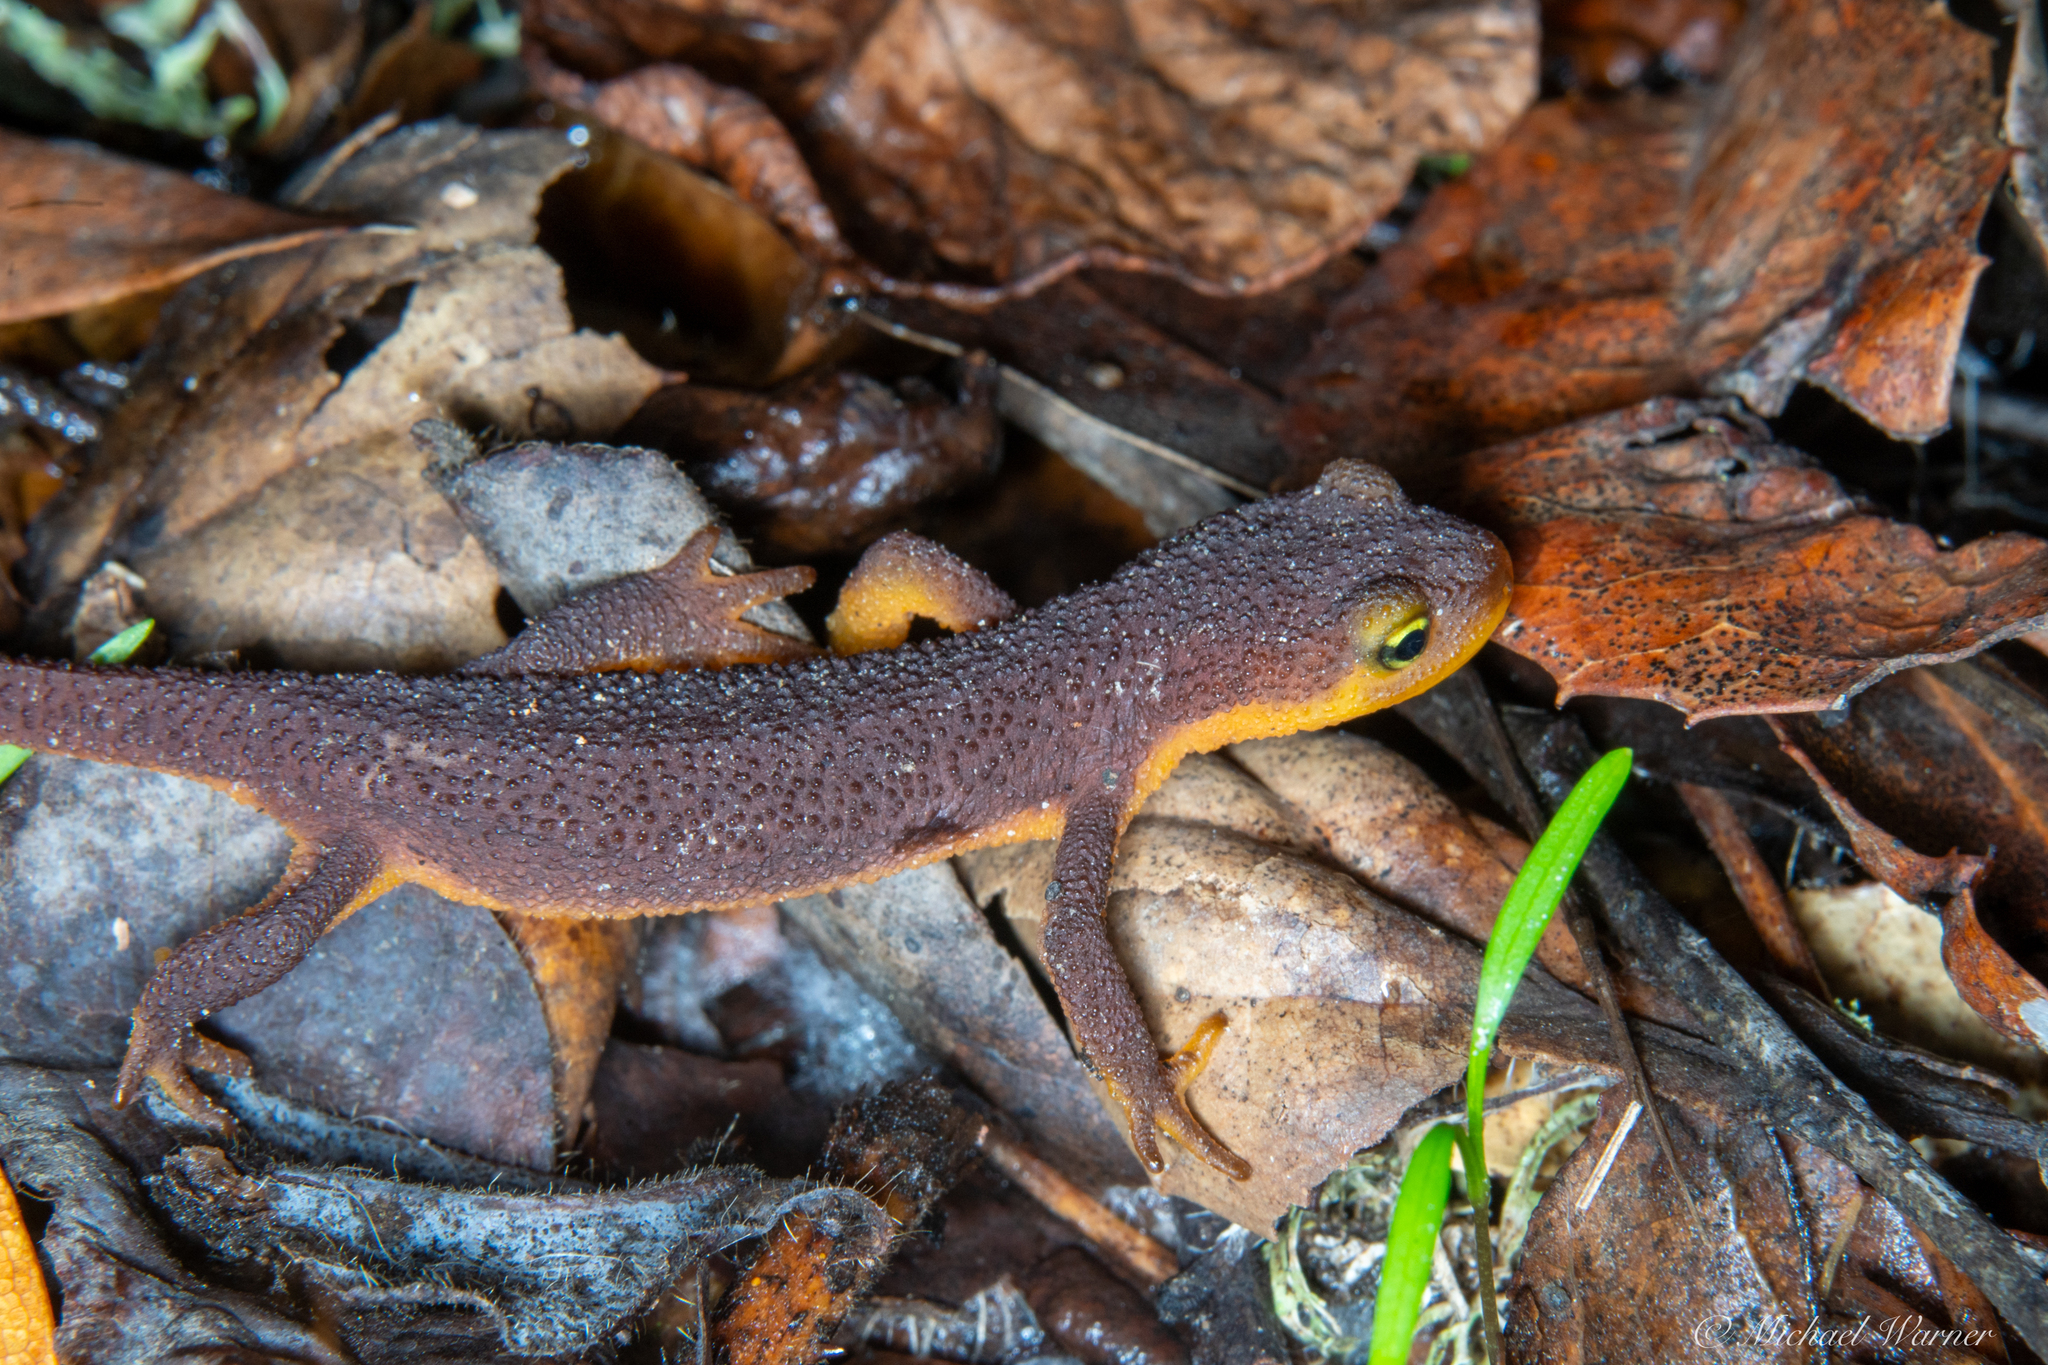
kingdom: Animalia
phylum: Chordata
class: Amphibia
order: Caudata
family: Salamandridae
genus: Taricha
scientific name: Taricha torosa
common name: California newt
